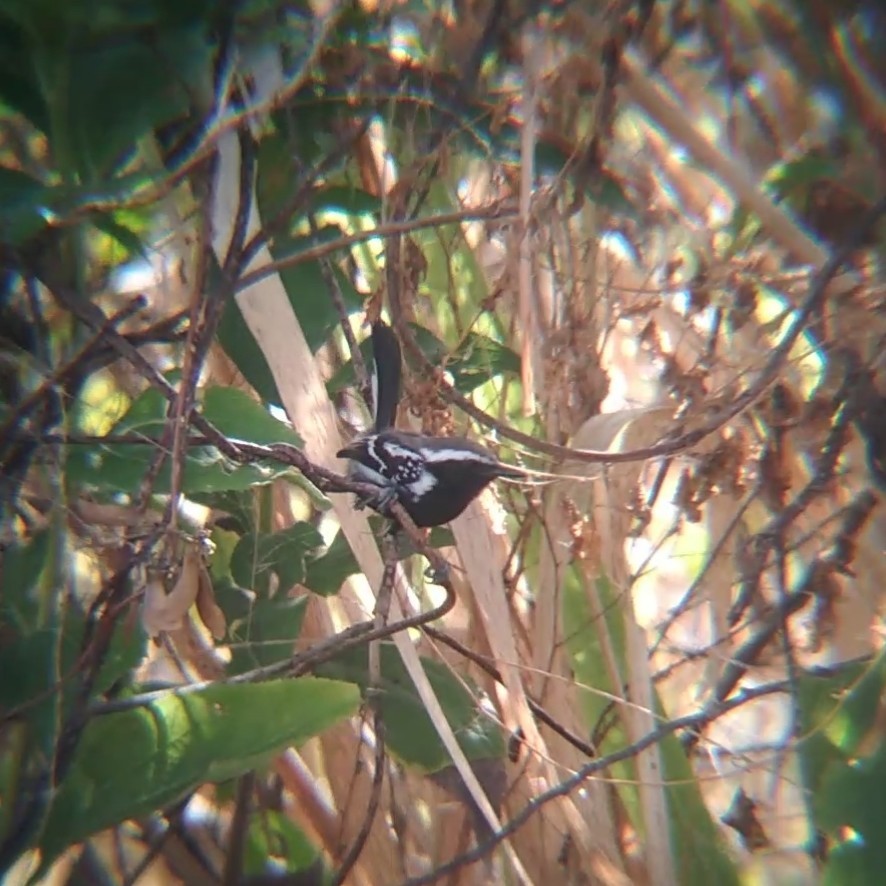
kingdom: Animalia
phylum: Chordata
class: Aves
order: Passeriformes
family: Thamnophilidae
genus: Formicivora
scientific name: Formicivora melanogaster
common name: Black-bellied antwren
